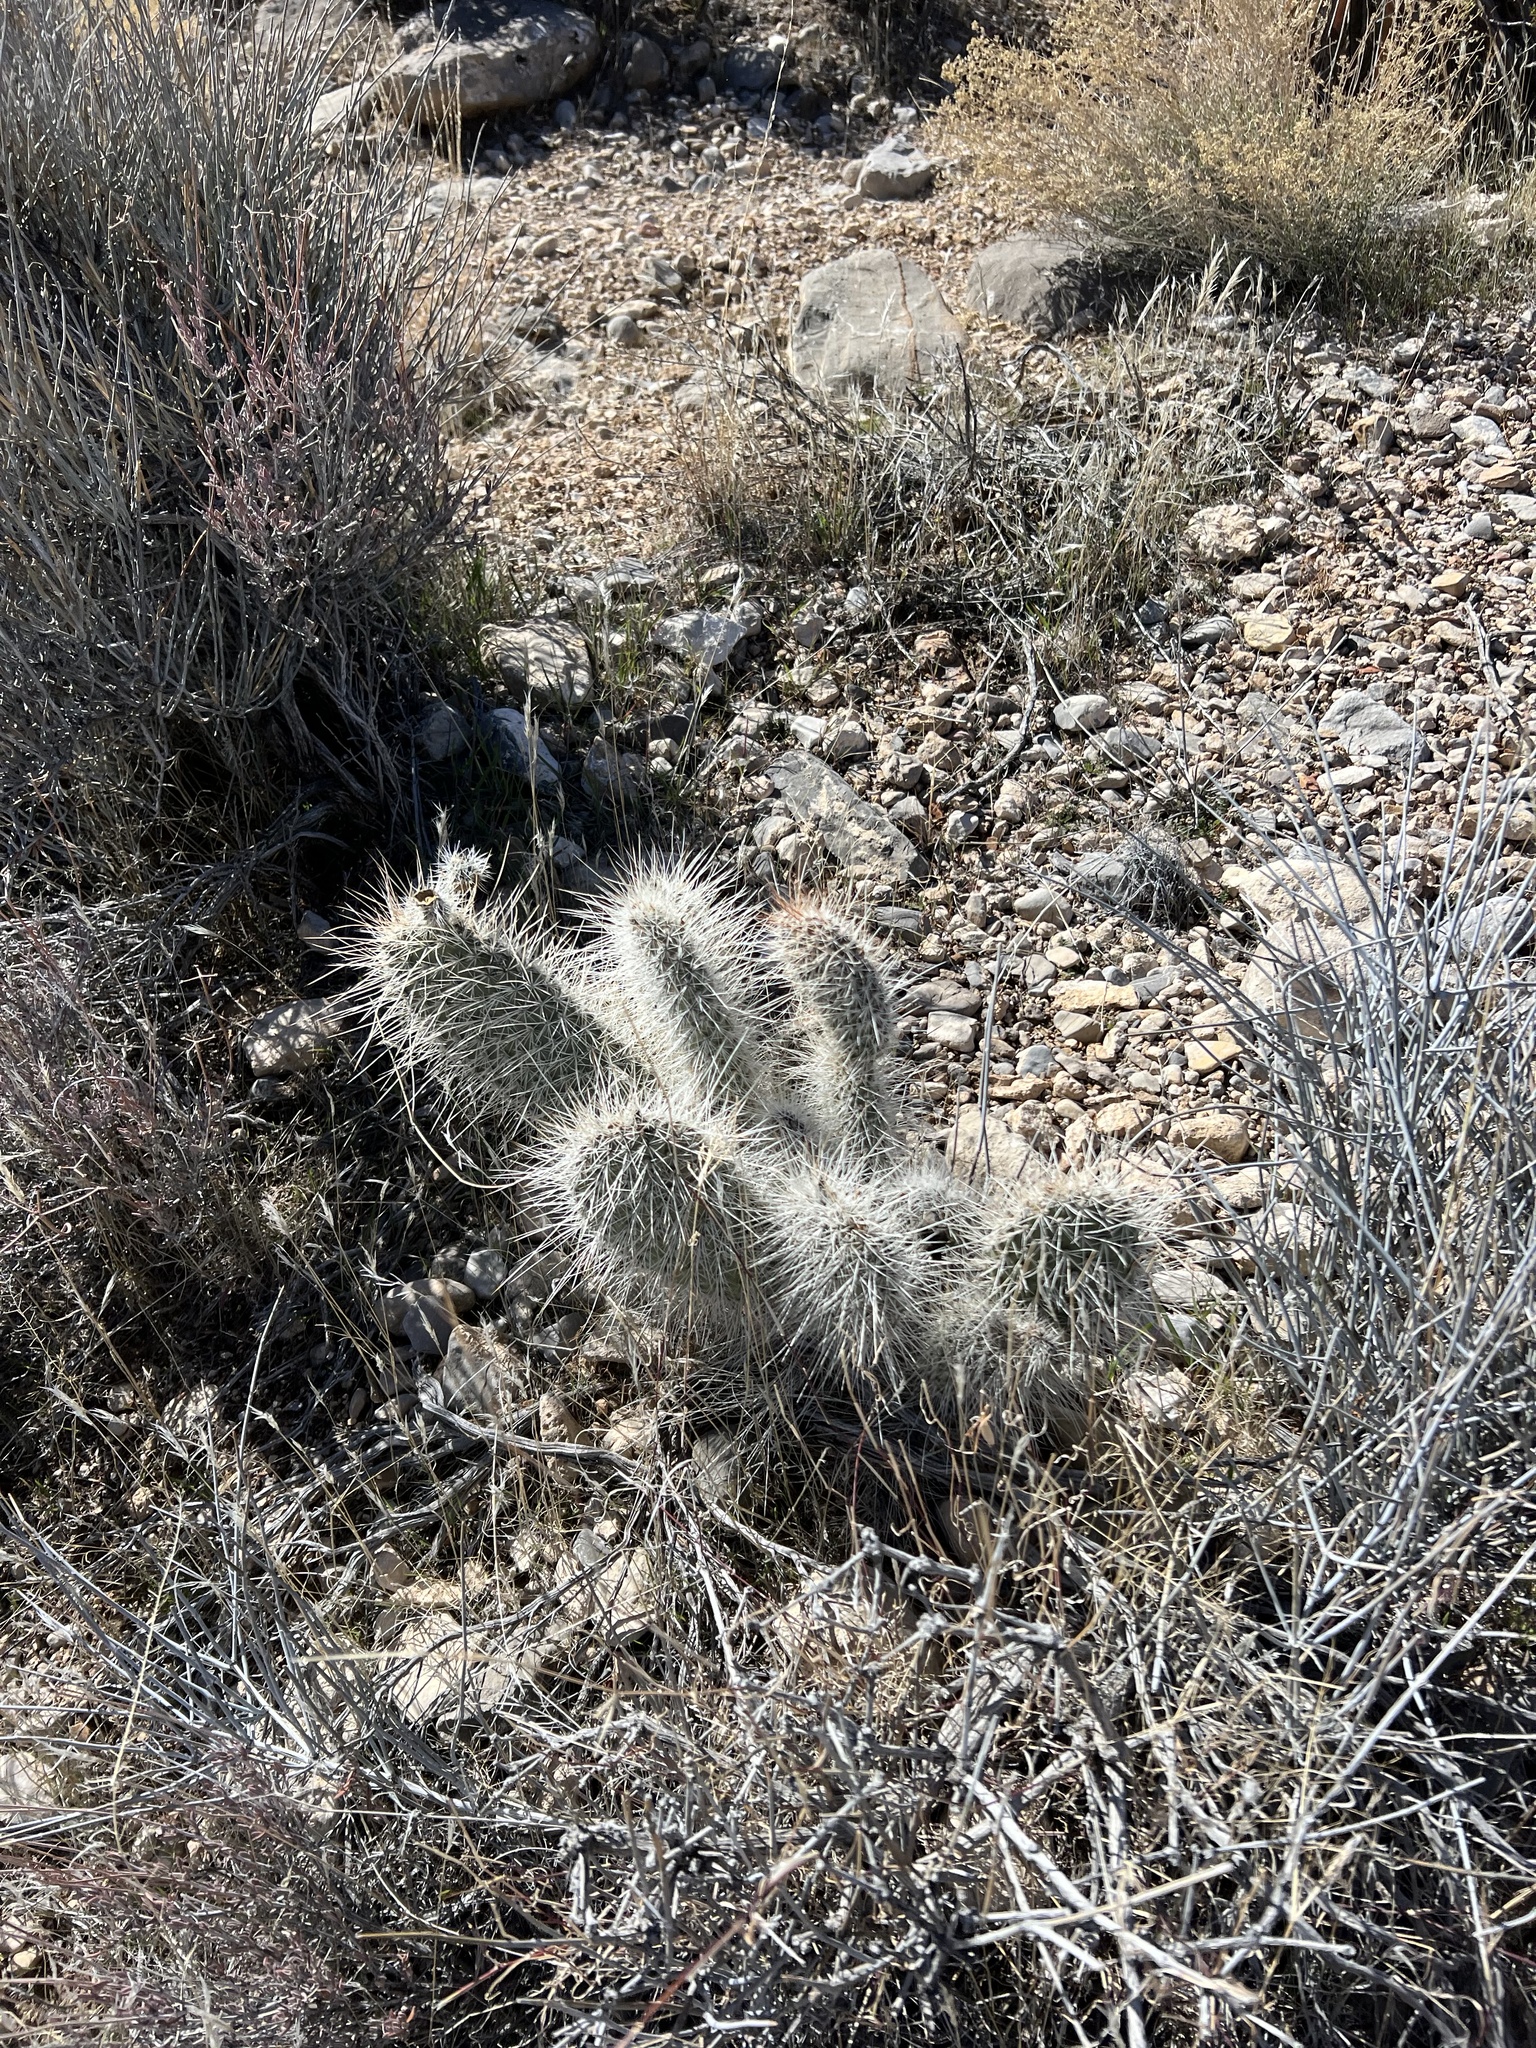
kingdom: Plantae
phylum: Tracheophyta
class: Magnoliopsida
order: Caryophyllales
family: Cactaceae
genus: Opuntia
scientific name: Opuntia polyacantha
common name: Plains prickly-pear
